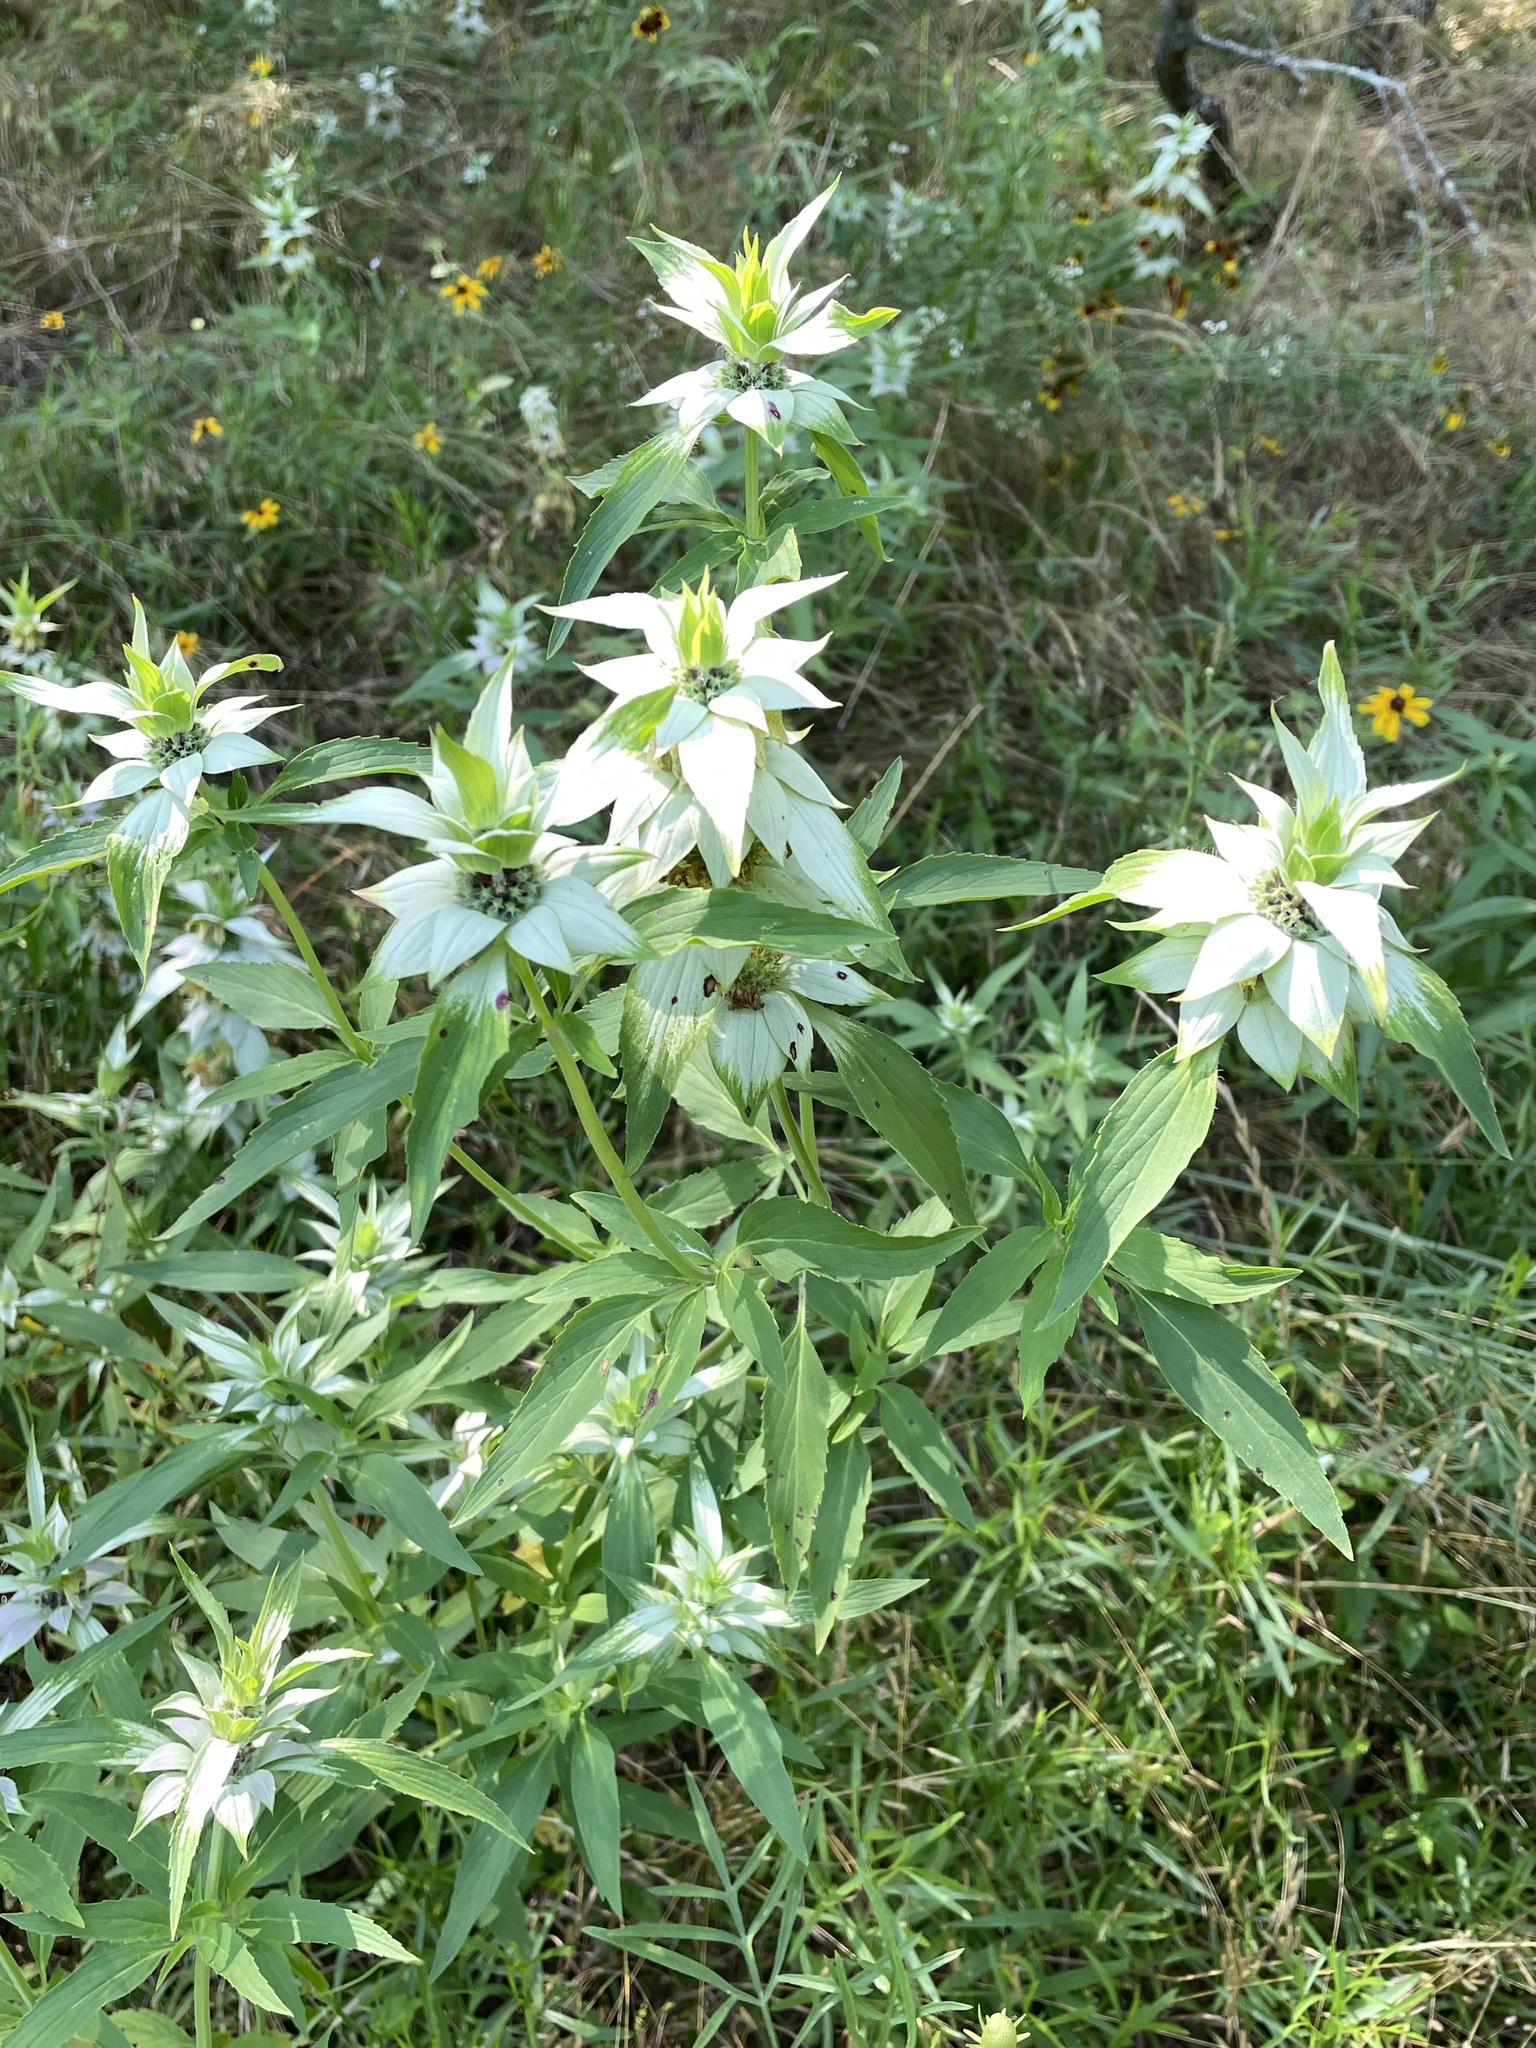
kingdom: Plantae
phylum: Tracheophyta
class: Magnoliopsida
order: Lamiales
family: Lamiaceae
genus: Monarda
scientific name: Monarda punctata
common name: Dotted monarda
